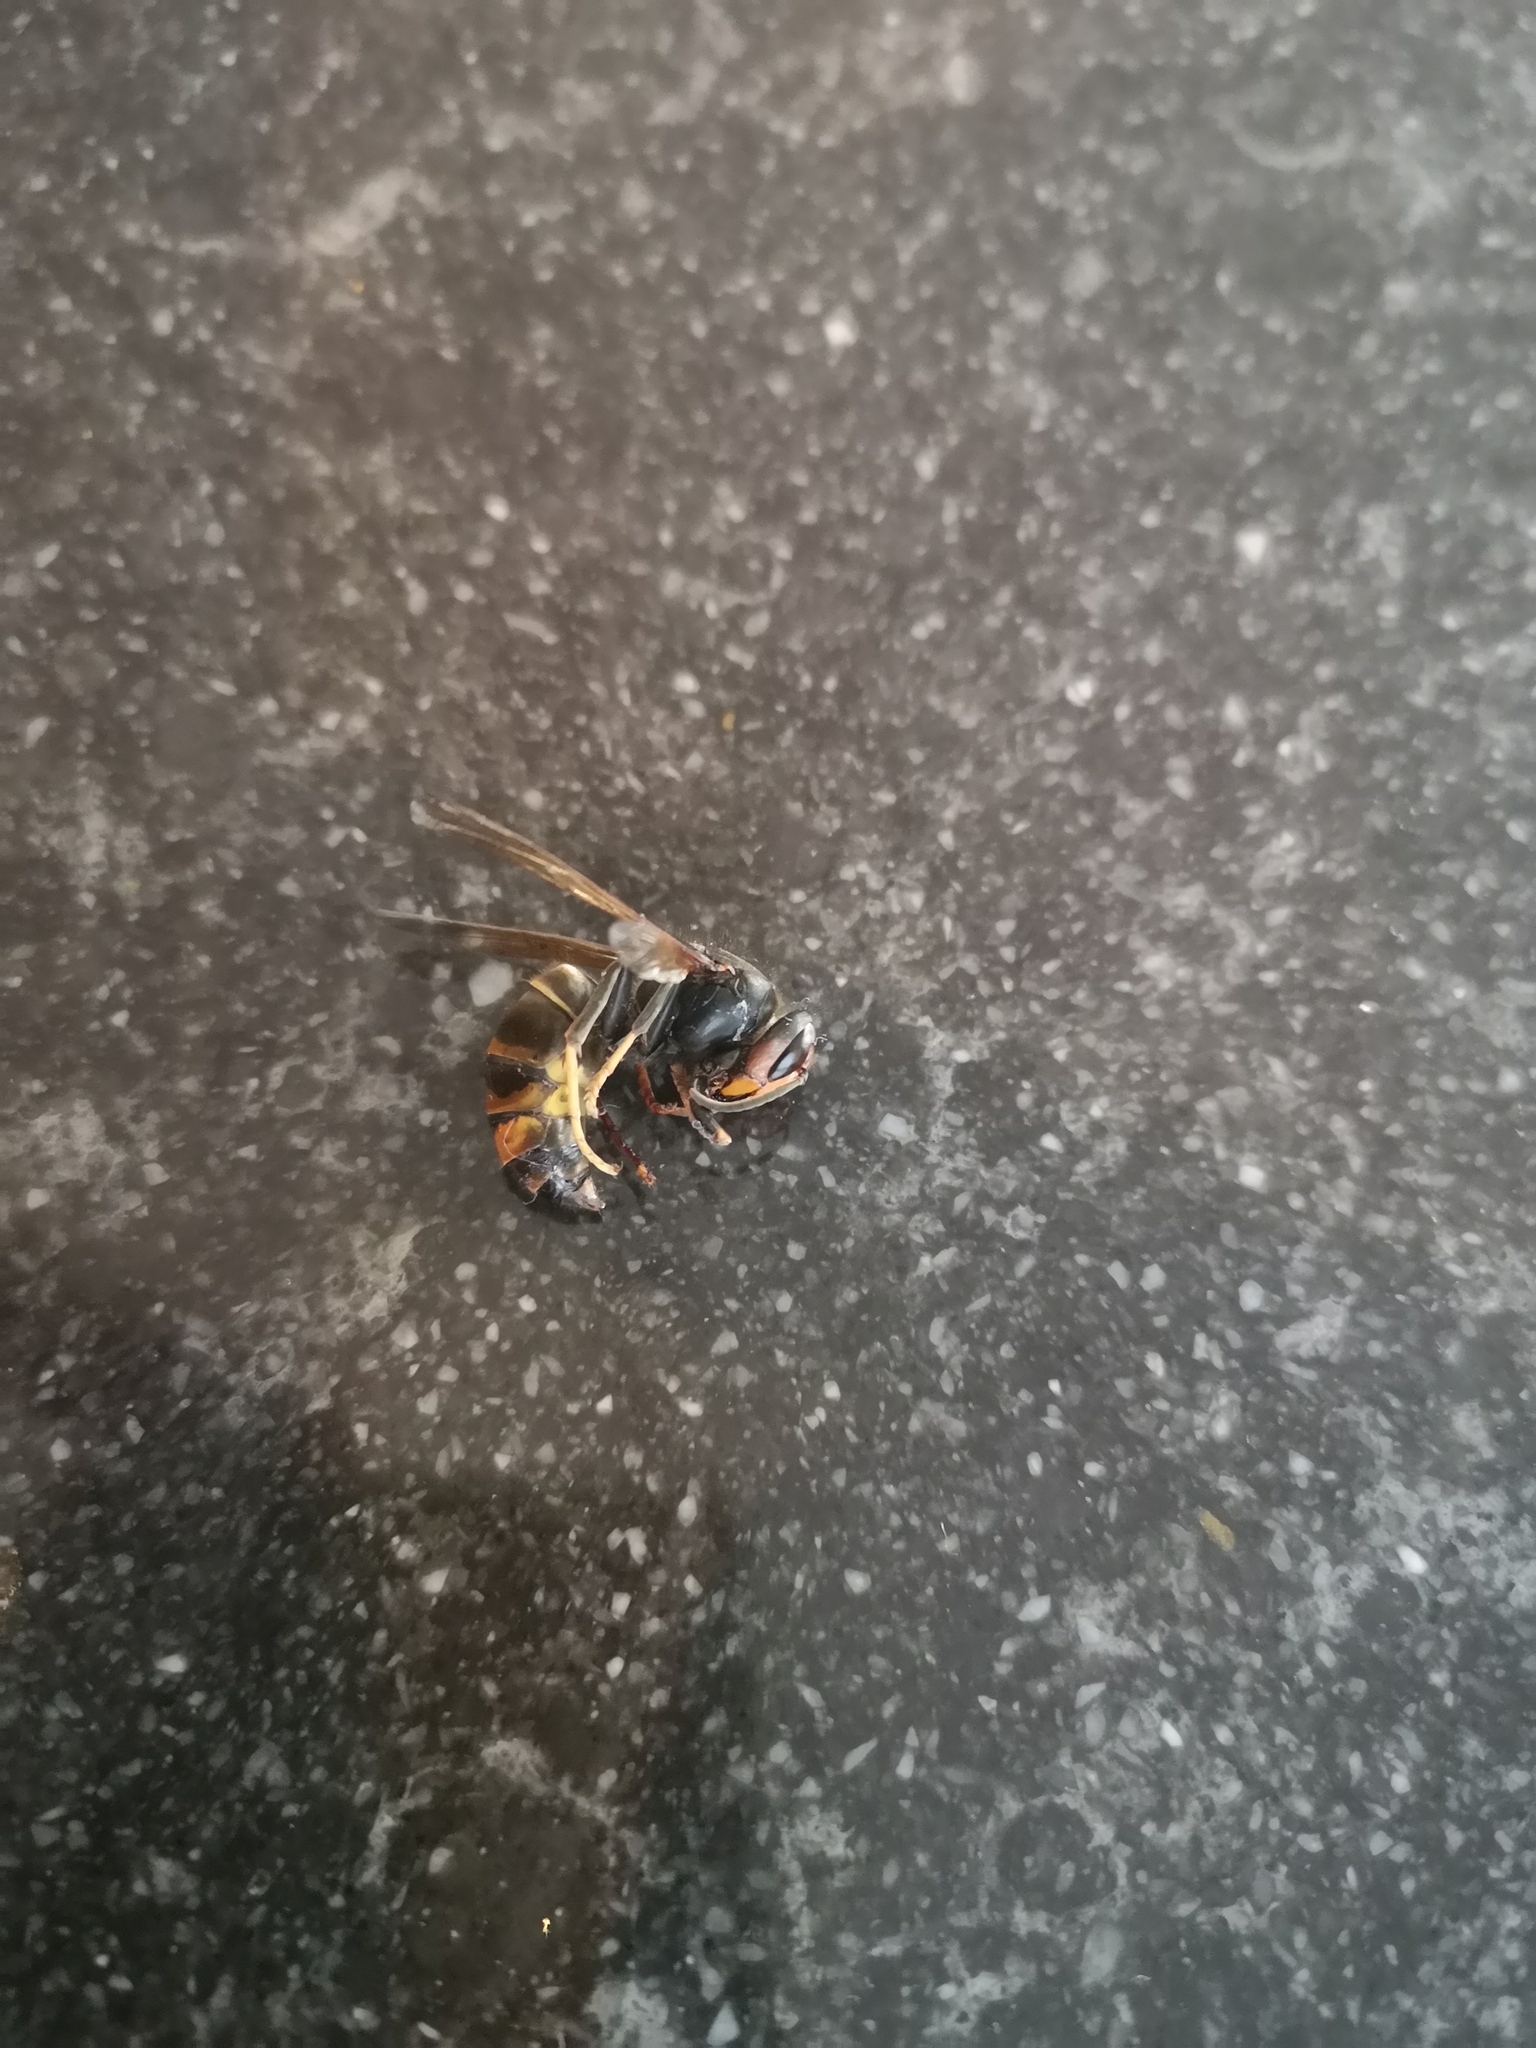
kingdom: Animalia
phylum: Arthropoda
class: Insecta
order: Hymenoptera
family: Vespidae
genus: Vespa
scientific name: Vespa velutina
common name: Asian hornet
